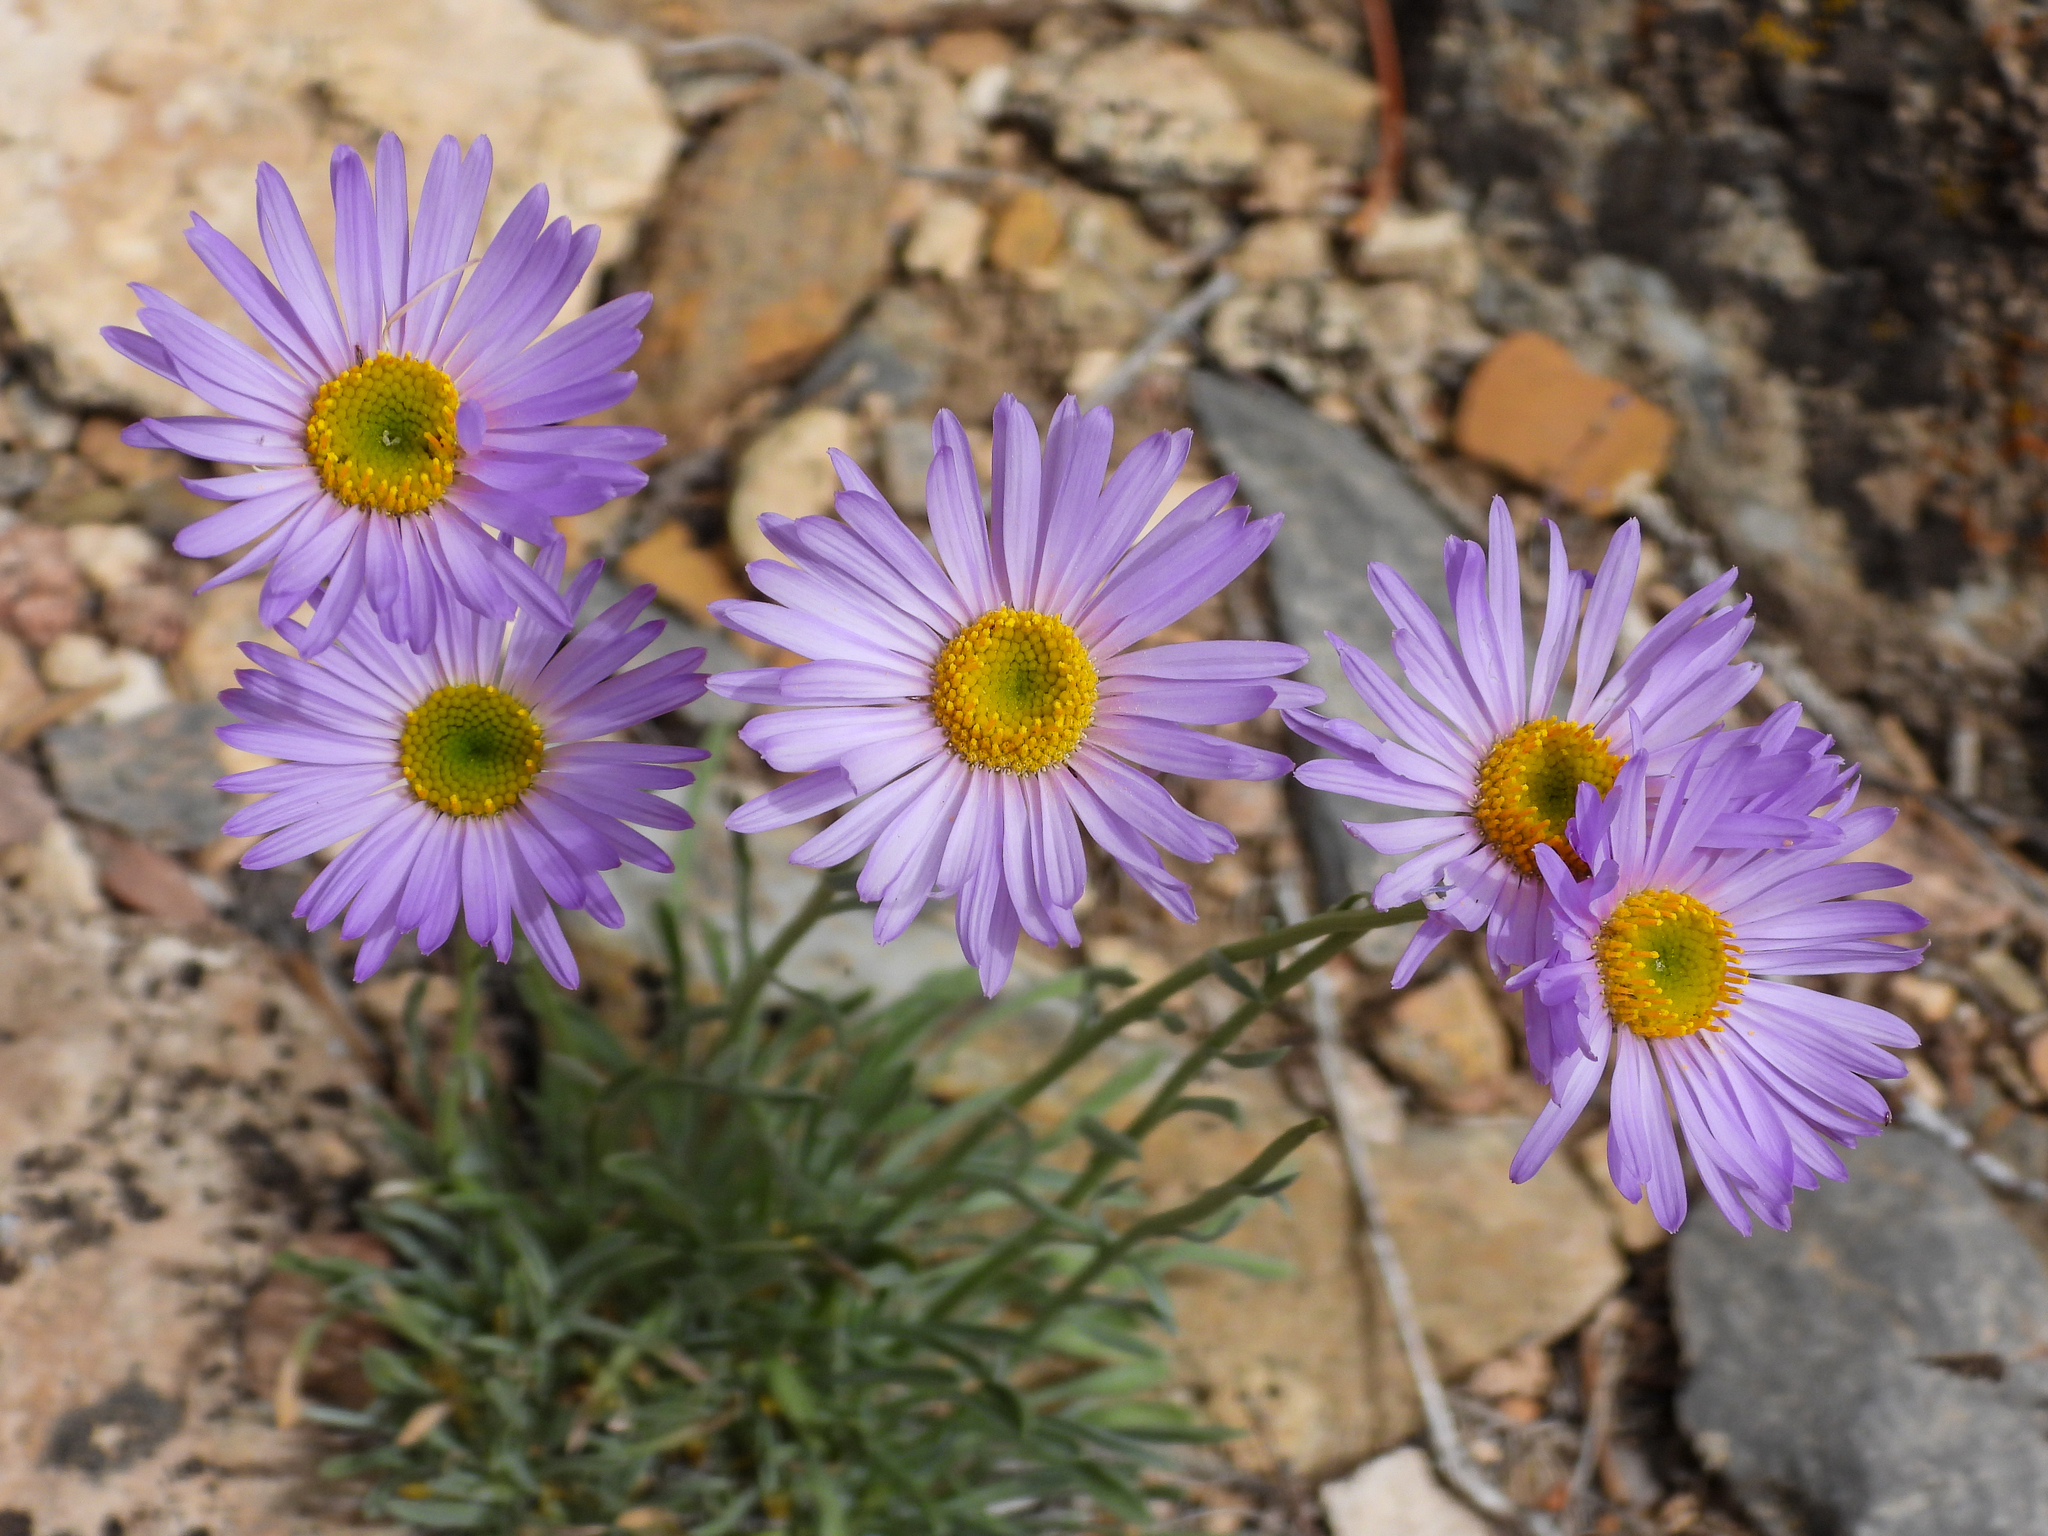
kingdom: Plantae
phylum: Tracheophyta
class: Magnoliopsida
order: Asterales
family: Asteraceae
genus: Erigeron
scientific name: Erigeron argentatus
